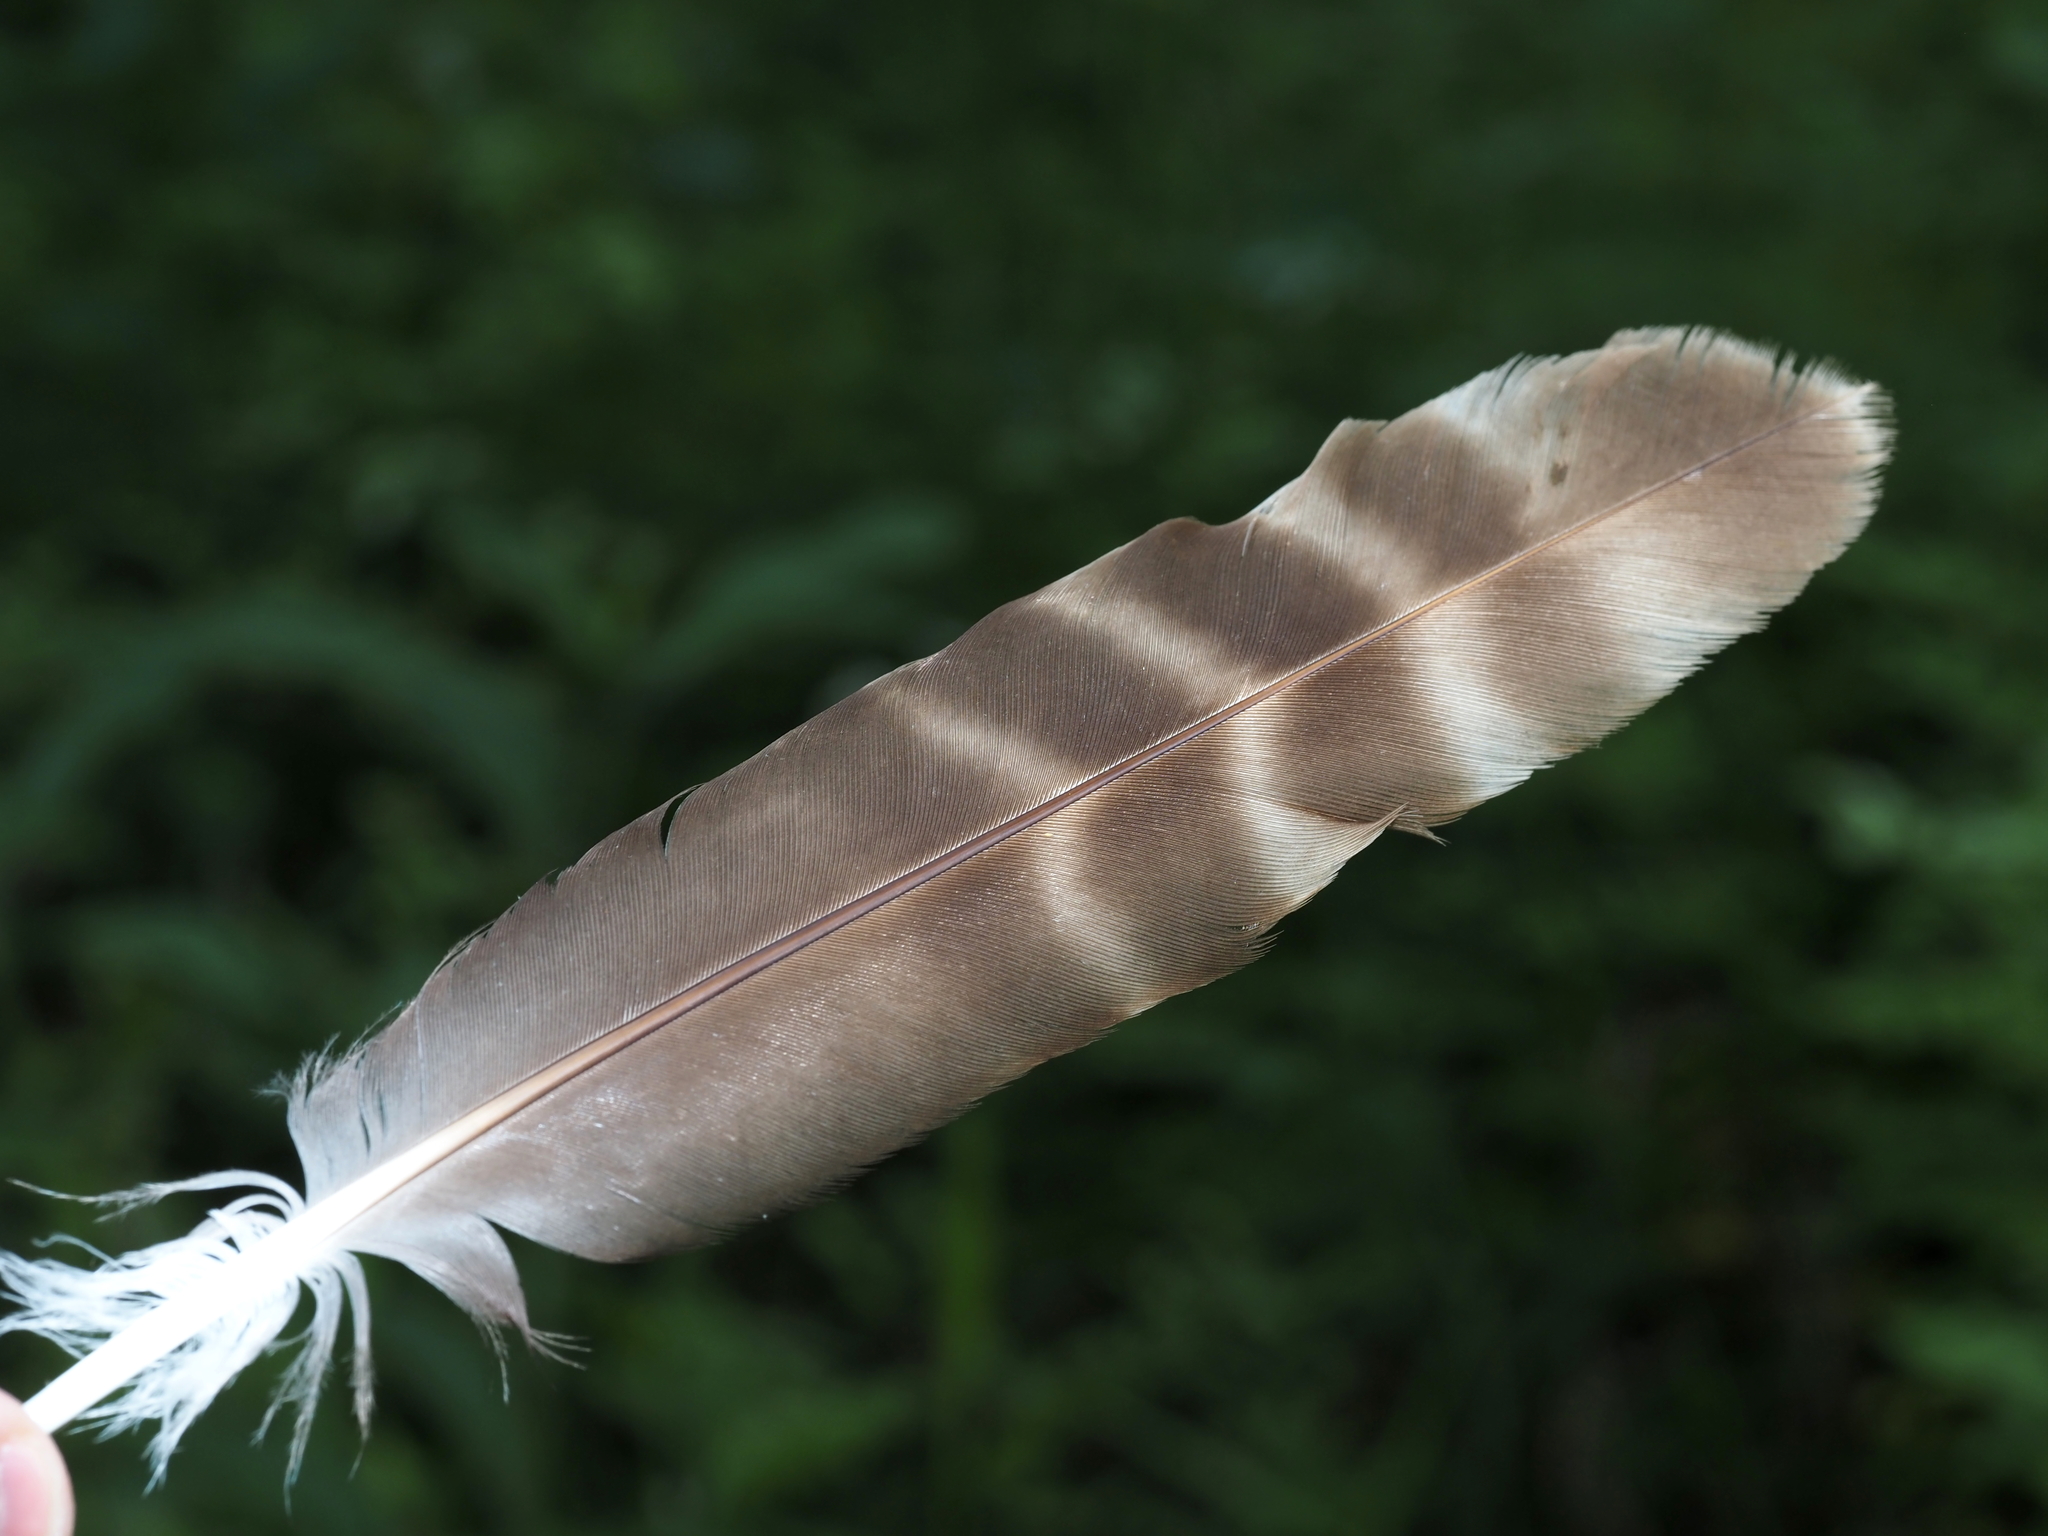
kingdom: Animalia
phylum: Chordata
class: Aves
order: Accipitriformes
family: Accipitridae
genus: Buteo
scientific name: Buteo lineatus
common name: Red-shouldered hawk
